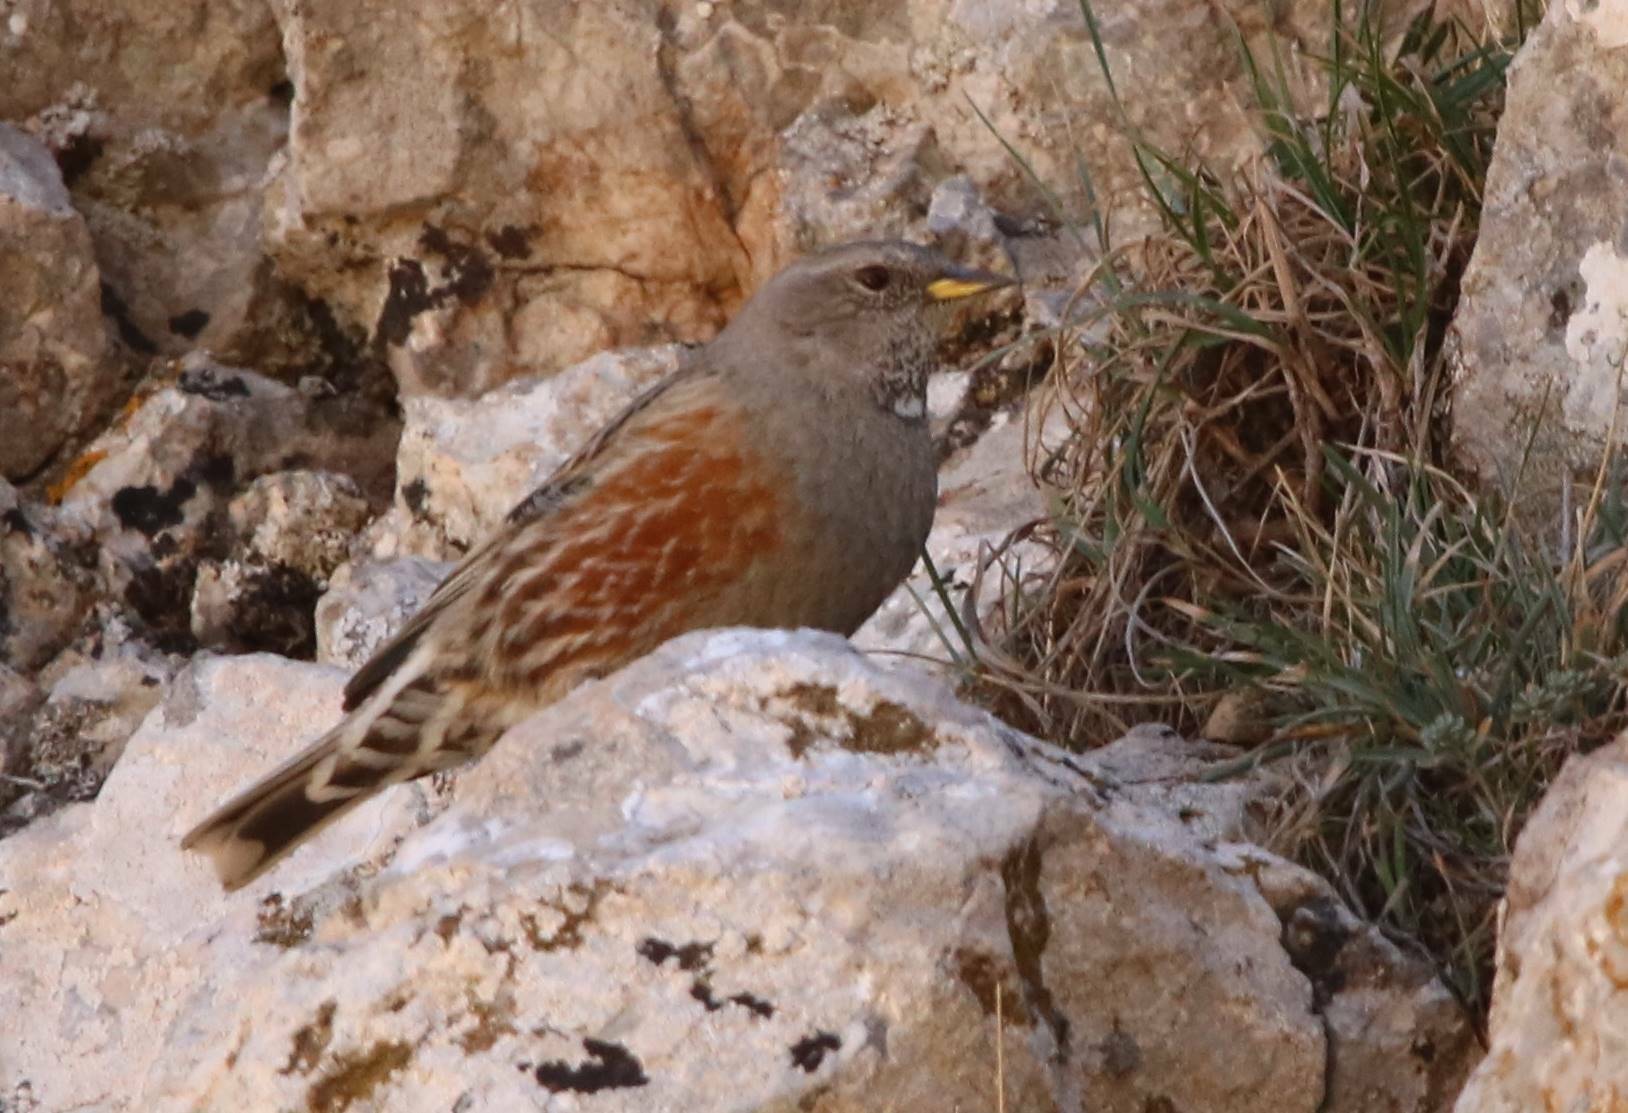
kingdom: Animalia
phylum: Chordata
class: Aves
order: Passeriformes
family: Prunellidae
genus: Prunella
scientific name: Prunella collaris
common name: Alpine accentor
